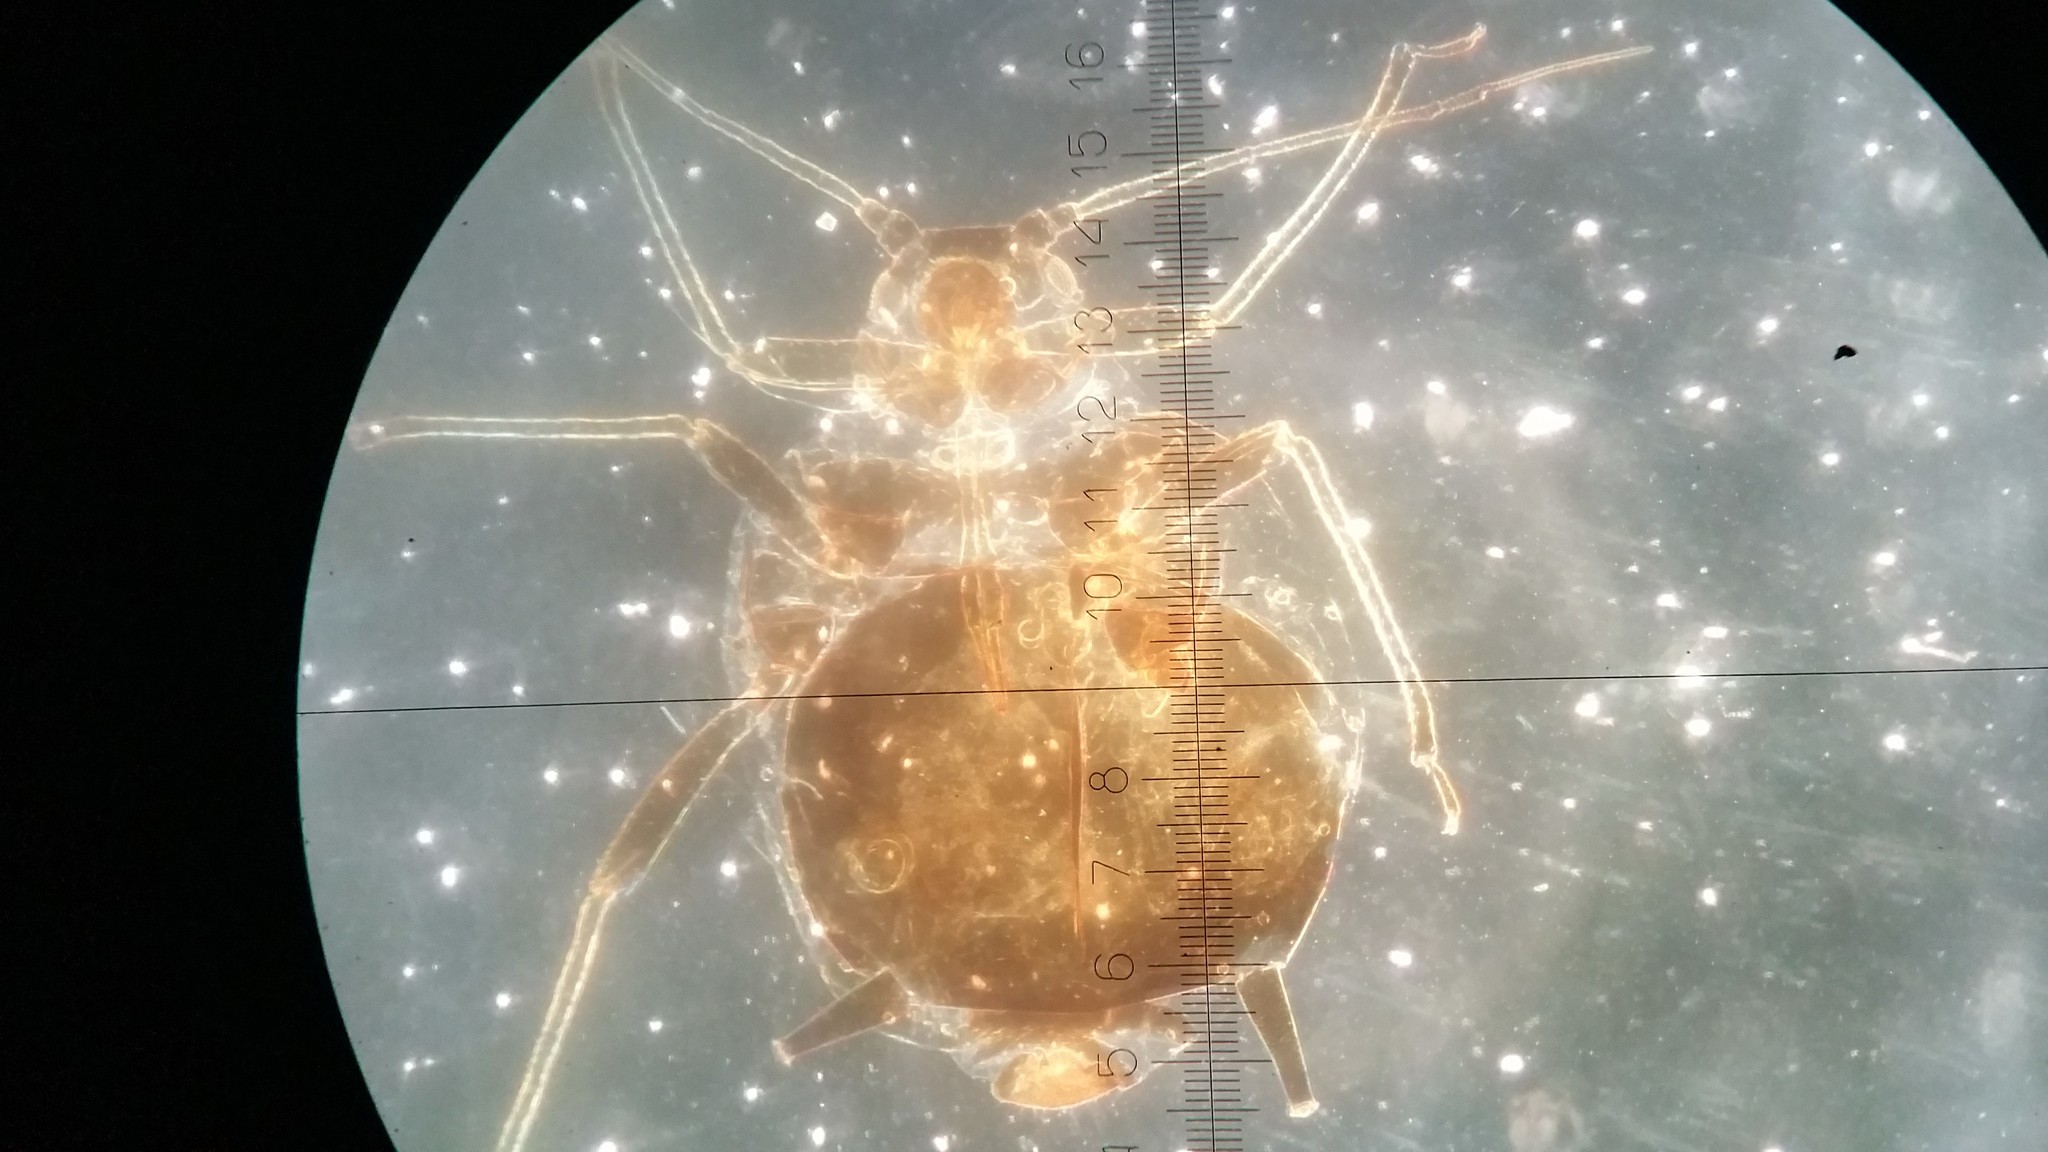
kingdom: Animalia
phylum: Arthropoda
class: Insecta
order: Hemiptera
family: Aphididae
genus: Brachycaudus
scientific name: Brachycaudus cardui
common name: Thistle aphid
